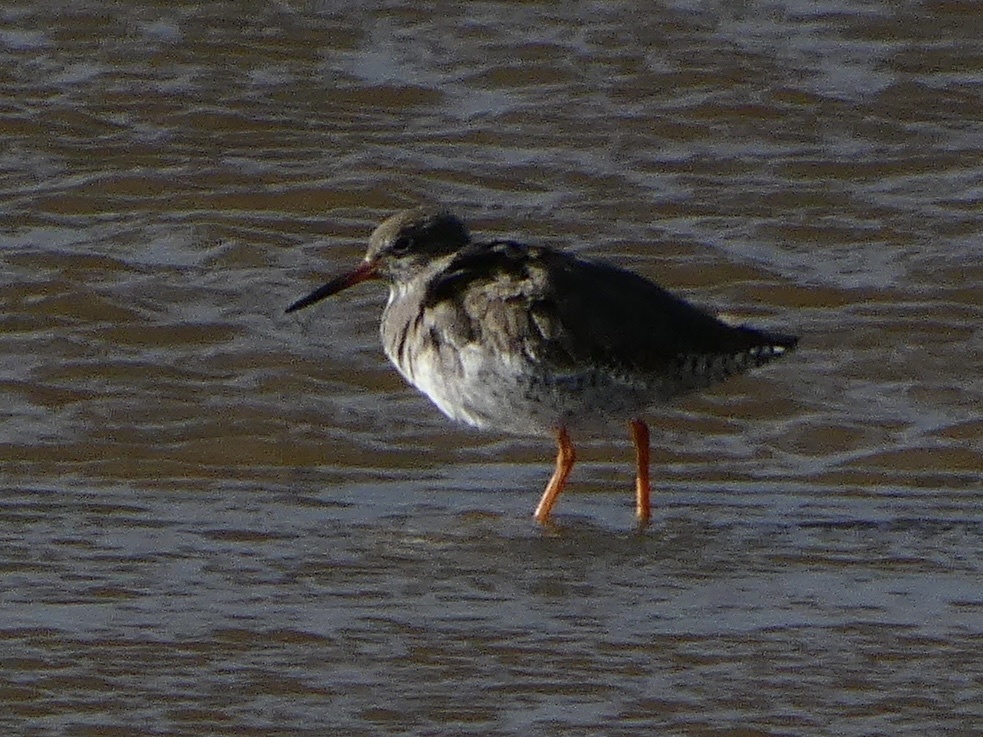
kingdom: Animalia
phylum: Chordata
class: Aves
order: Charadriiformes
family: Scolopacidae
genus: Tringa
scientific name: Tringa totanus
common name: Common redshank
